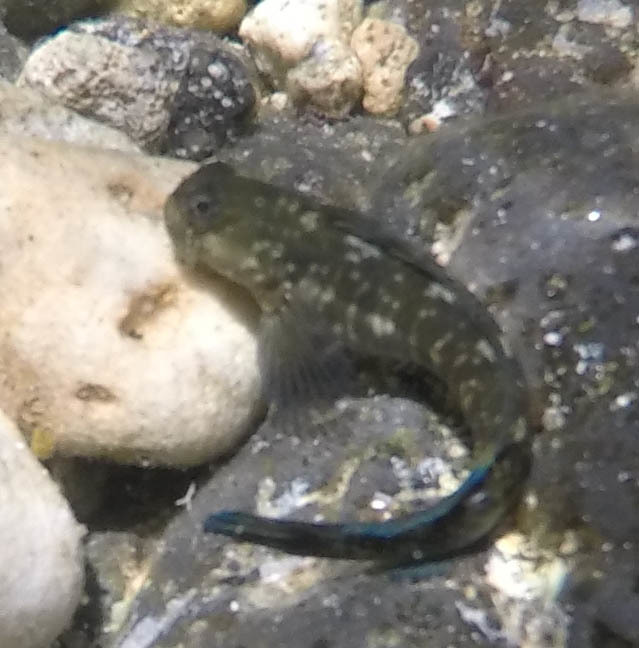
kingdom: Animalia
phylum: Chordata
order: Perciformes
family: Blenniidae
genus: Istiblennius
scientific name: Istiblennius zebra
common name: Zebra blenny
